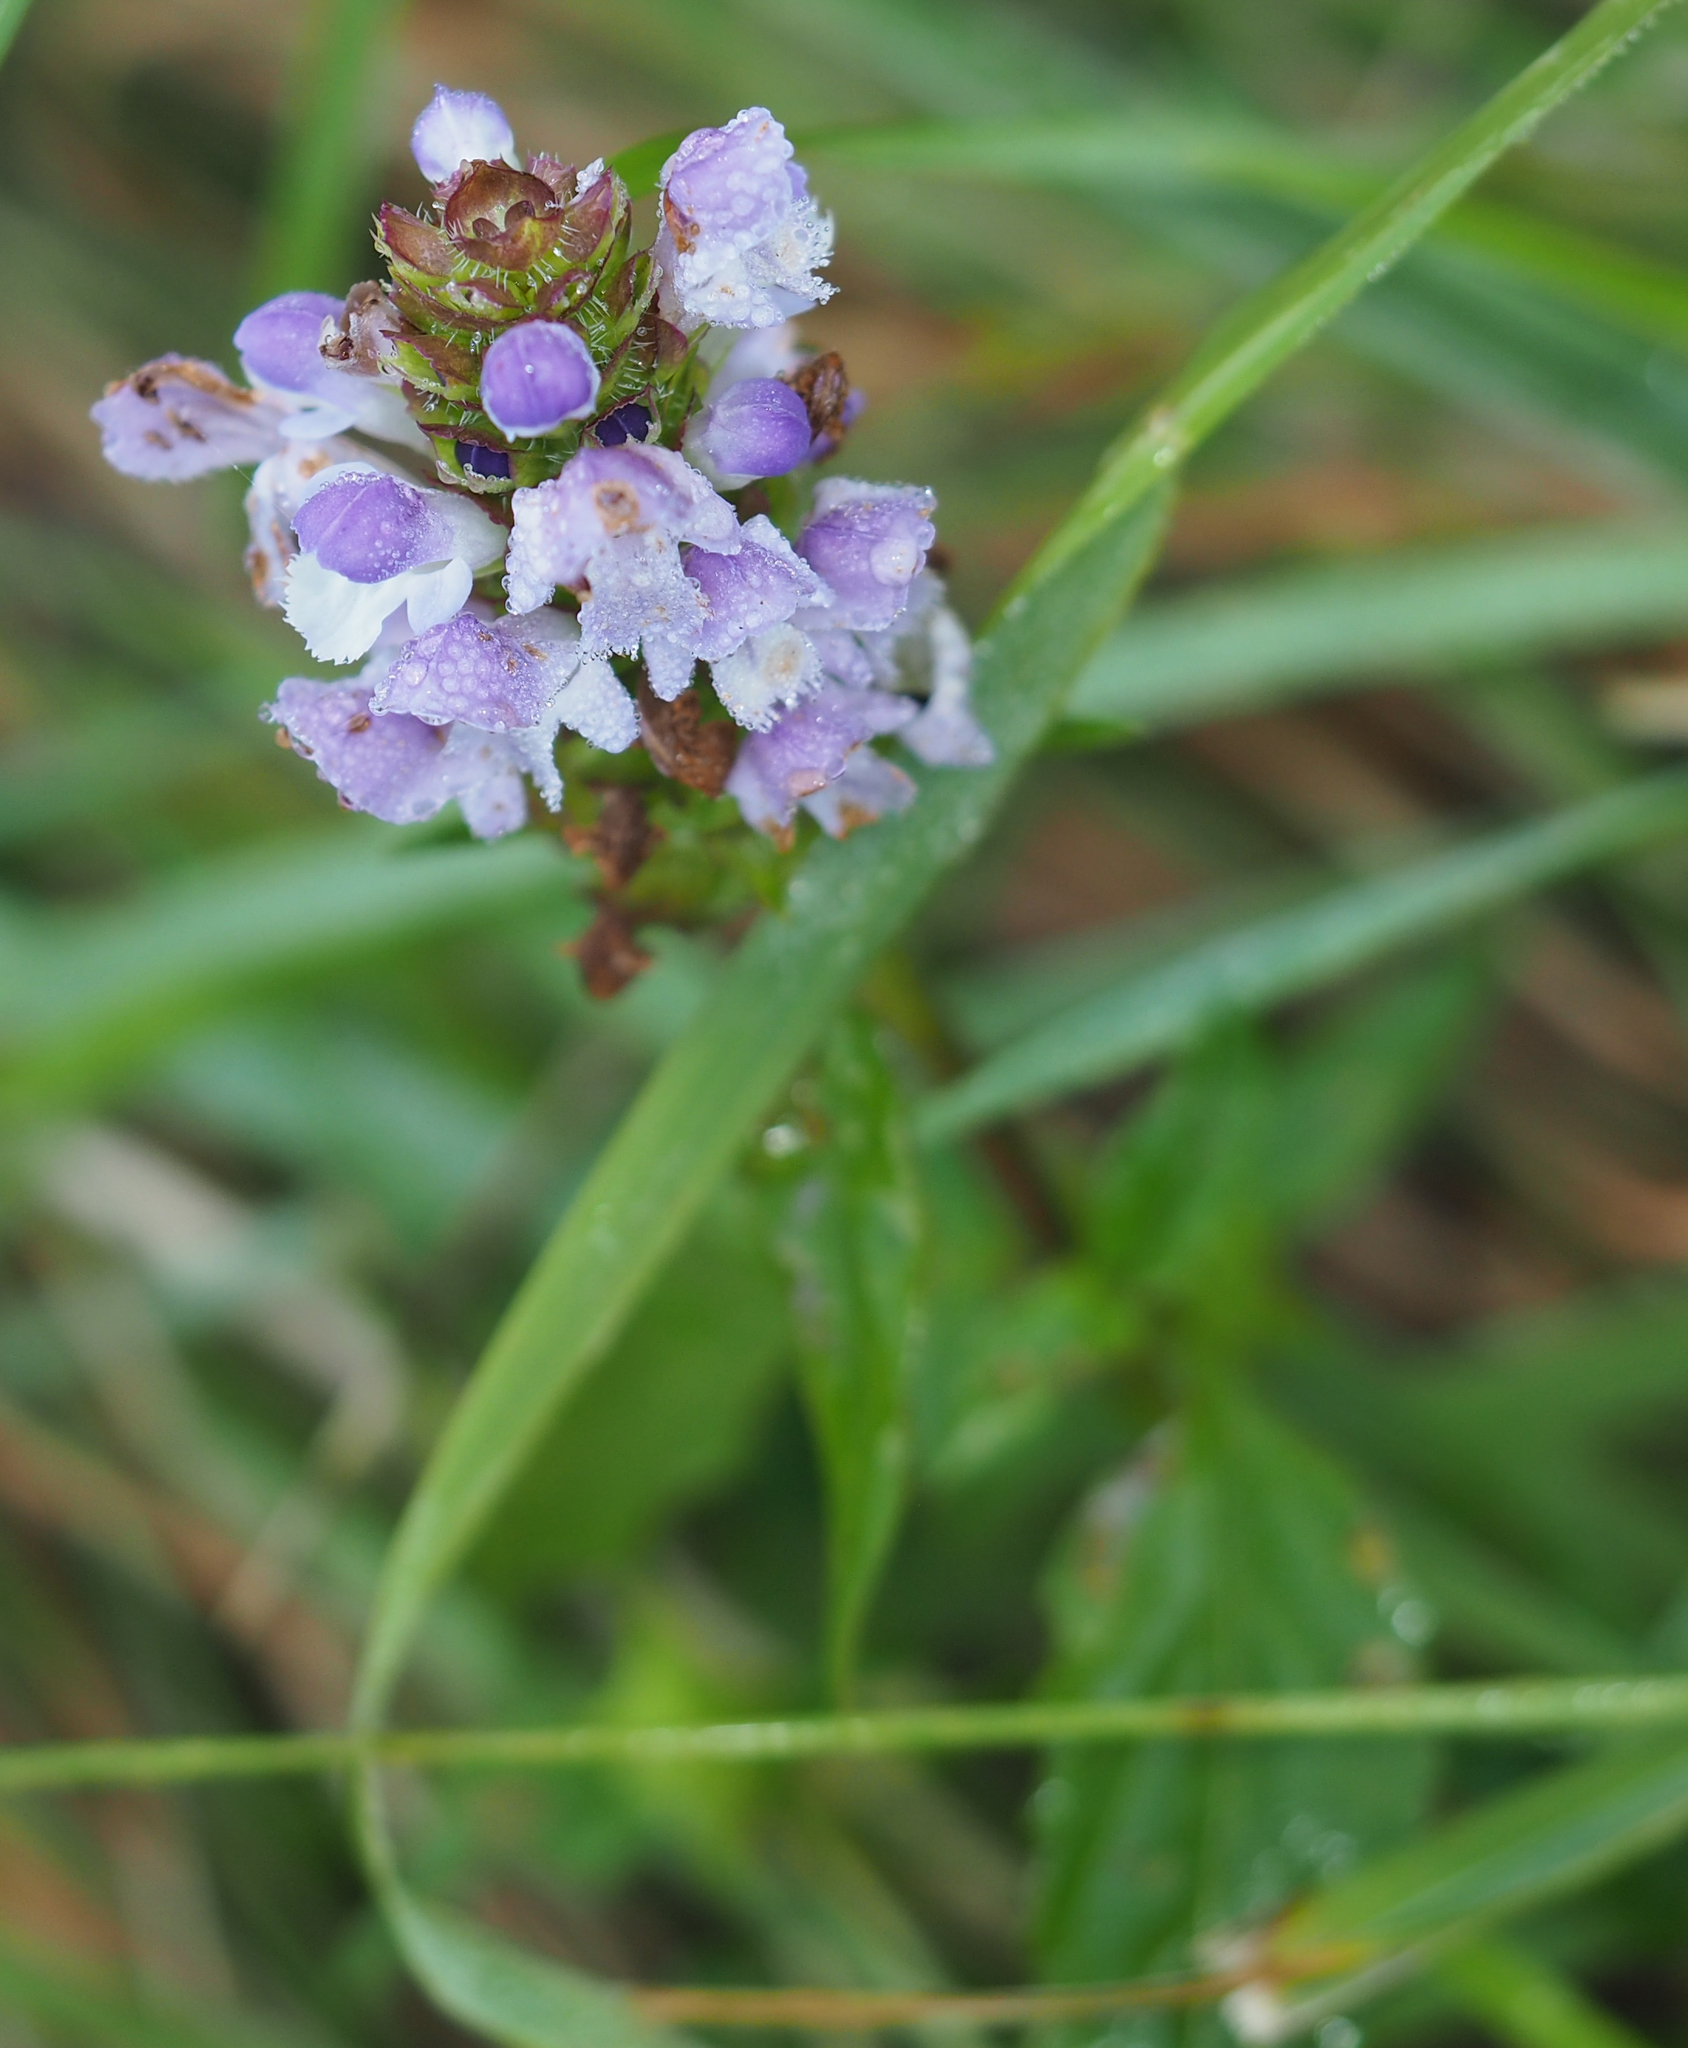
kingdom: Plantae
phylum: Tracheophyta
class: Magnoliopsida
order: Lamiales
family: Lamiaceae
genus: Prunella
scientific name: Prunella vulgaris
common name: Heal-all
